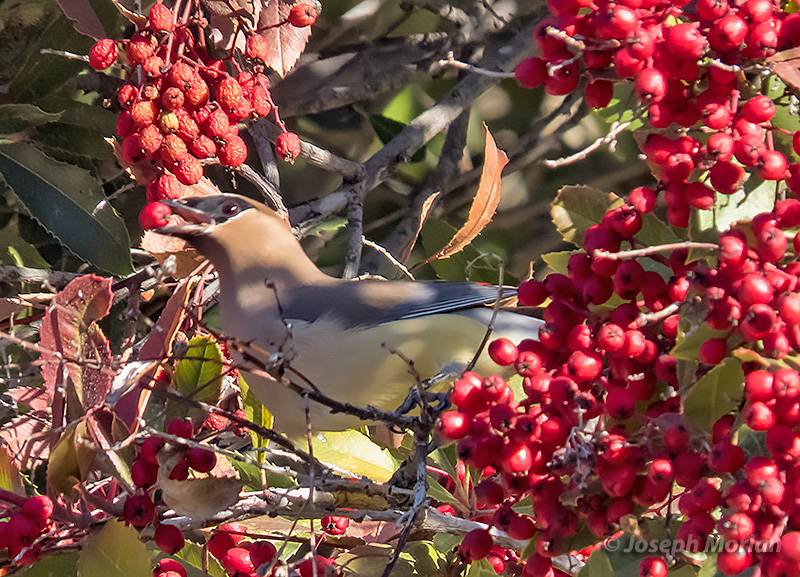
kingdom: Animalia
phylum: Chordata
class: Aves
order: Passeriformes
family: Bombycillidae
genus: Bombycilla
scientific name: Bombycilla cedrorum
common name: Cedar waxwing
